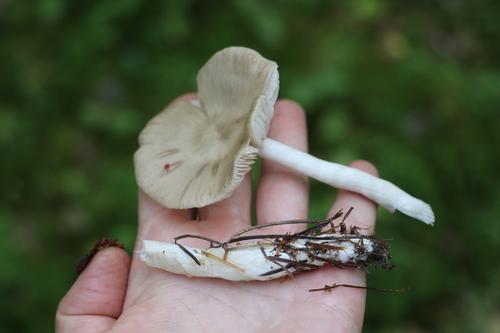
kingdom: Fungi
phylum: Basidiomycota
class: Agaricomycetes
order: Agaricales
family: Entolomataceae
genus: Entoloma
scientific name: Entoloma
